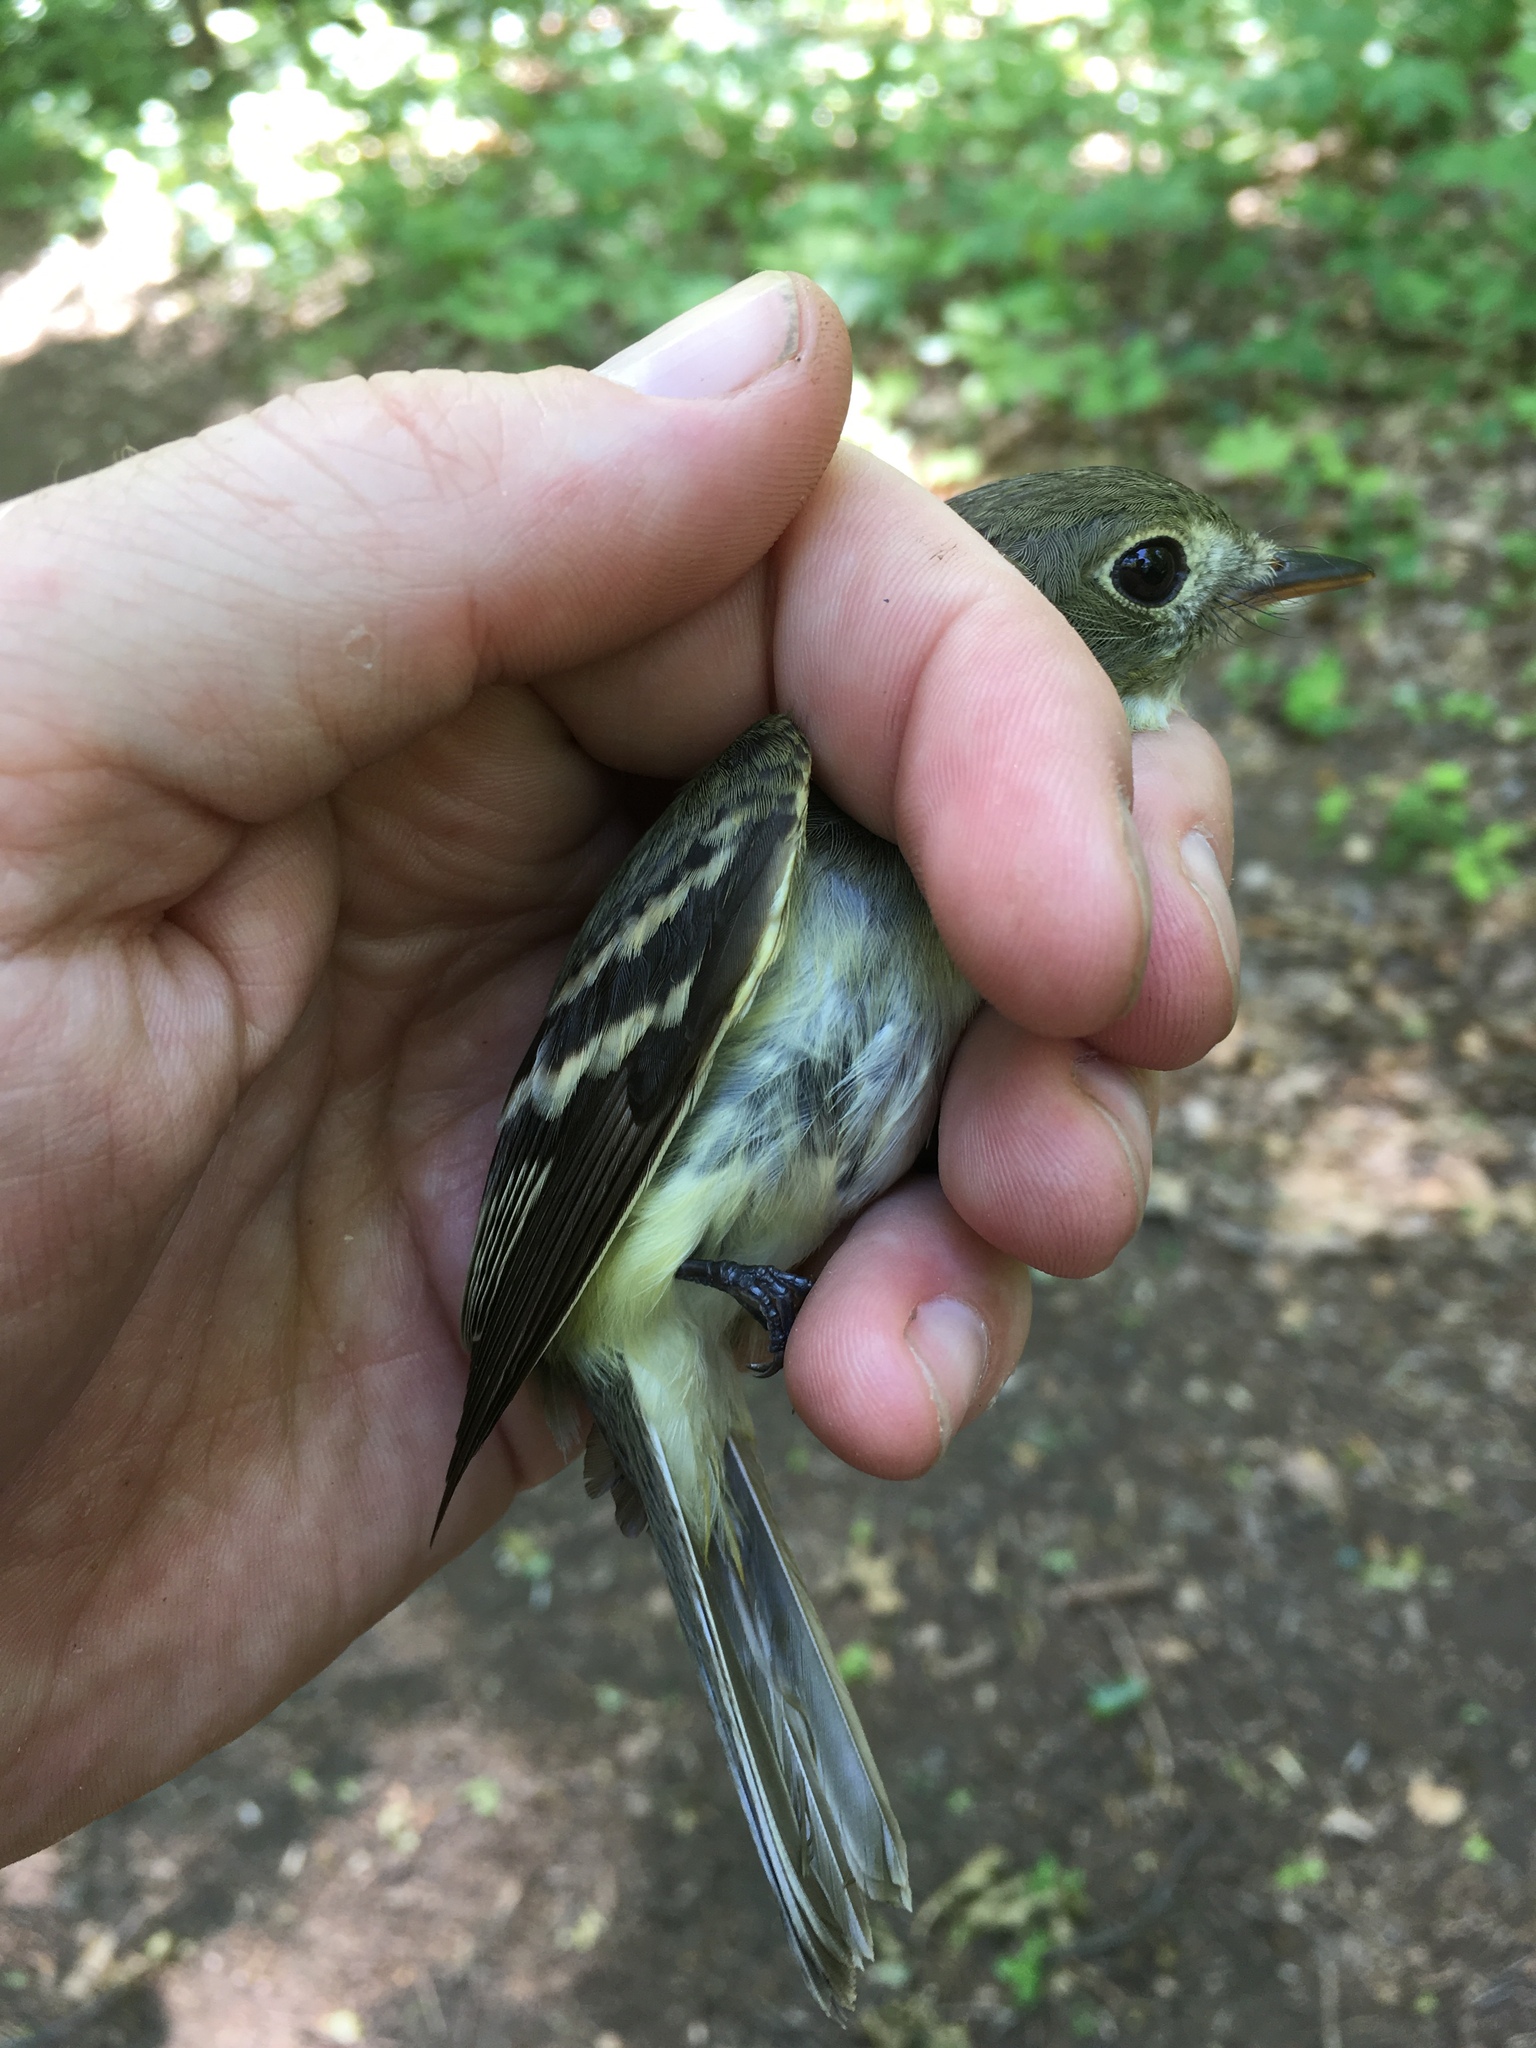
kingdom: Animalia
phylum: Chordata
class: Aves
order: Passeriformes
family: Tyrannidae
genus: Empidonax
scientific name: Empidonax virescens
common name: Acadian flycatcher
